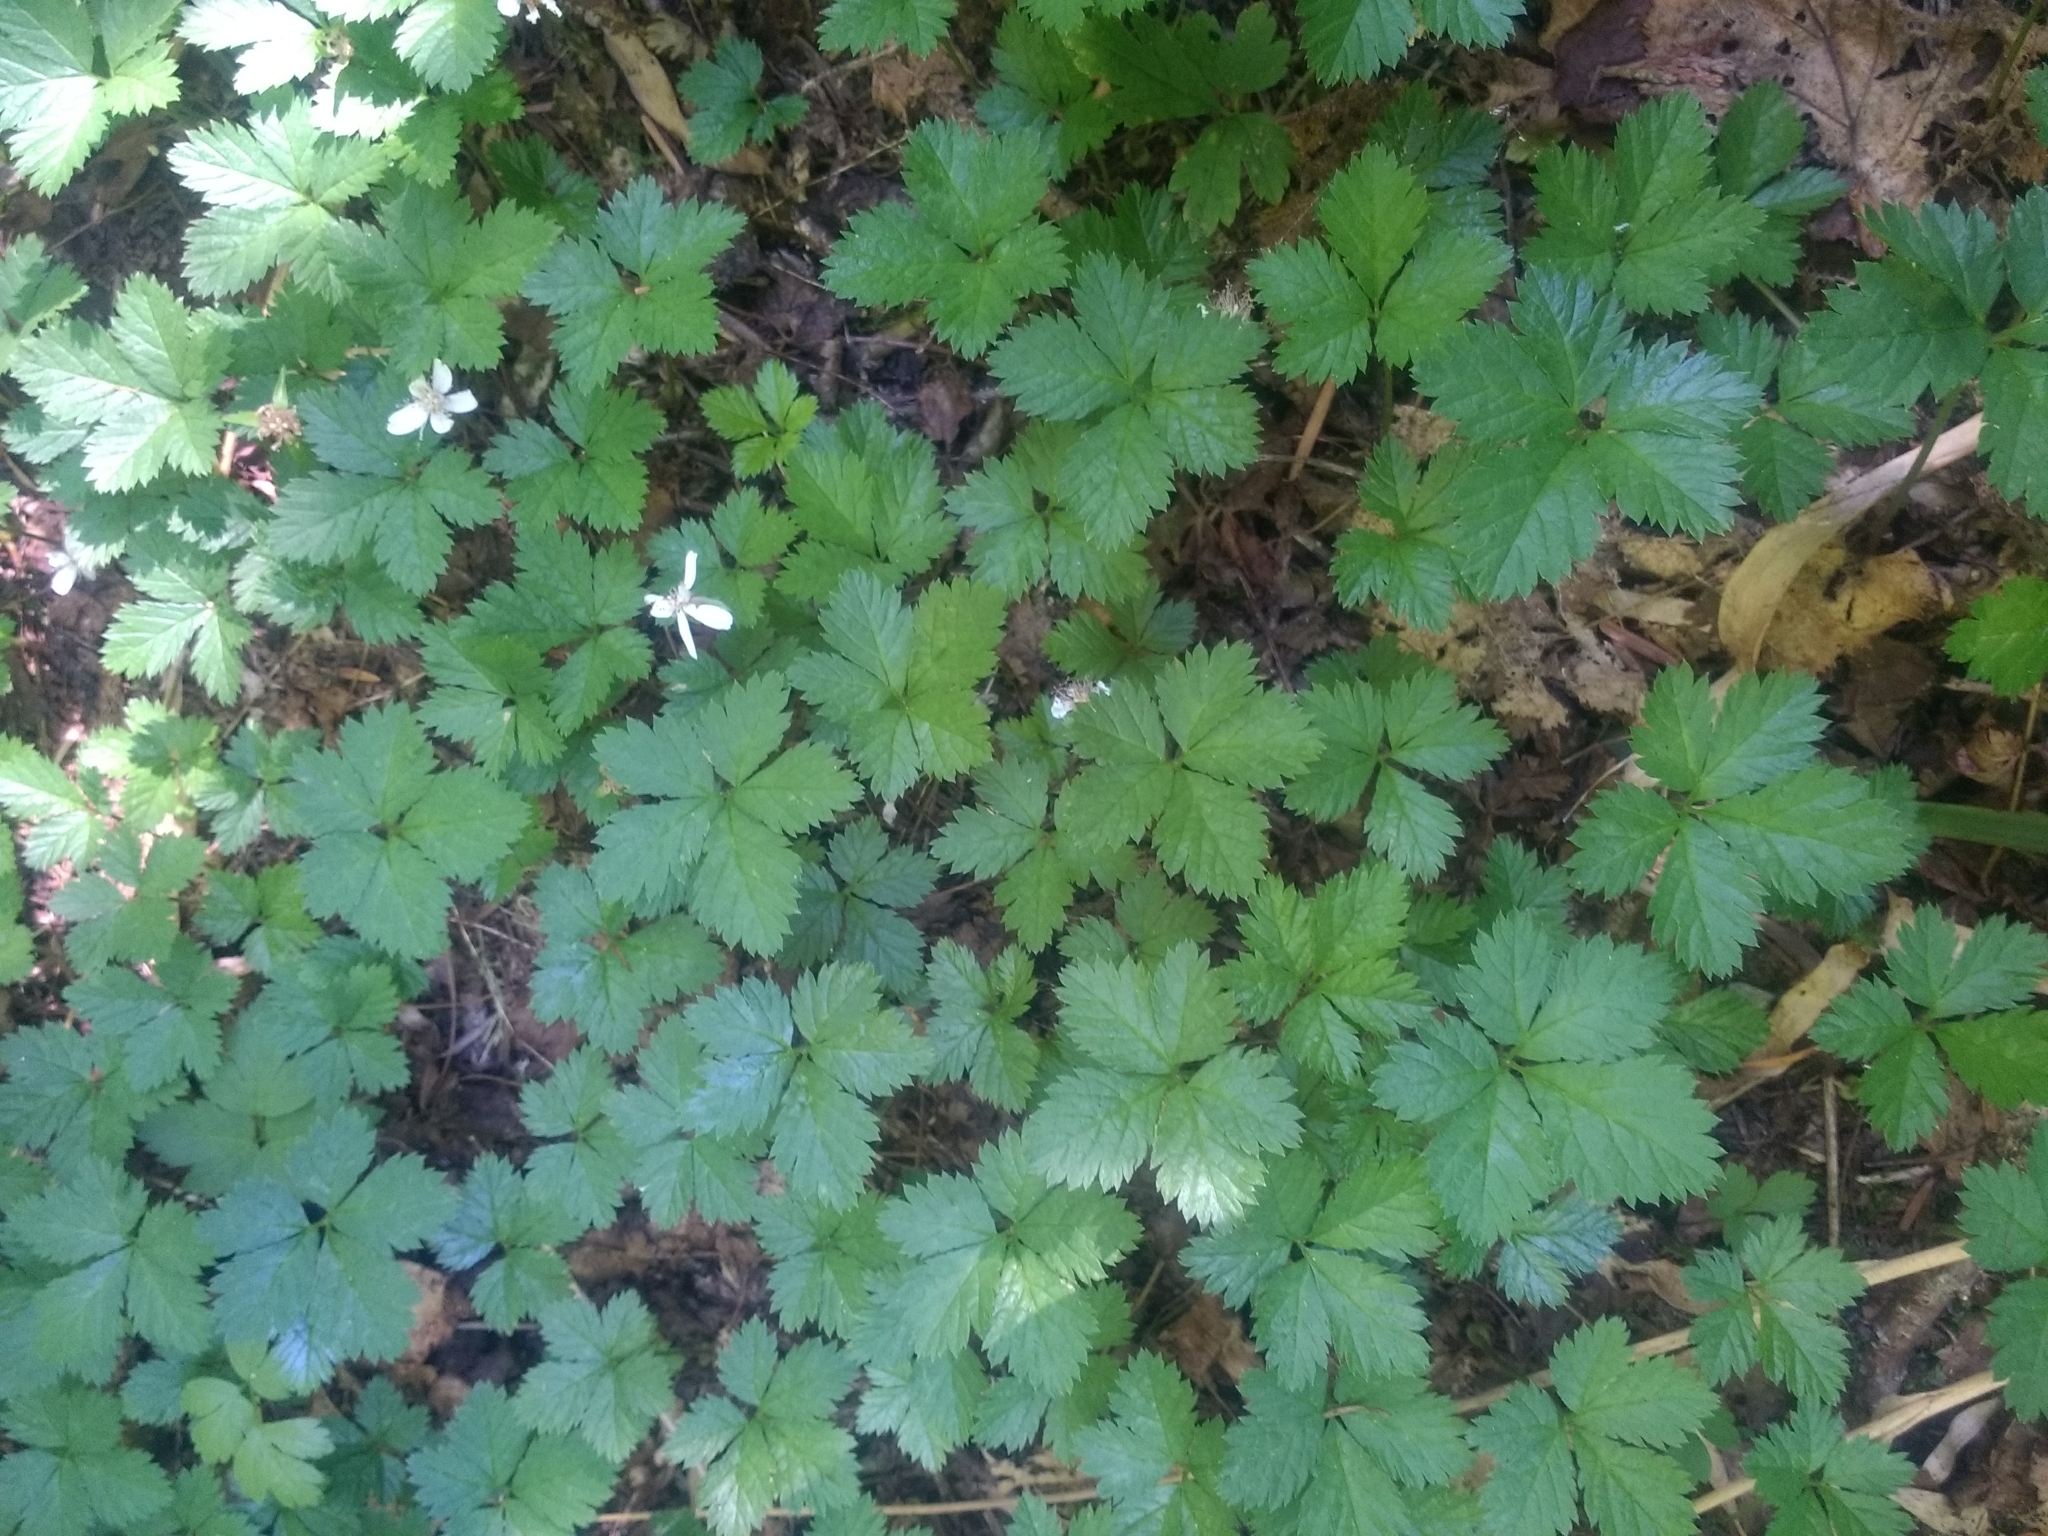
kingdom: Plantae
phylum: Tracheophyta
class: Magnoliopsida
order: Rosales
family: Rosaceae
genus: Rubus
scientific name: Rubus pedatus
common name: Creeping raspberry
